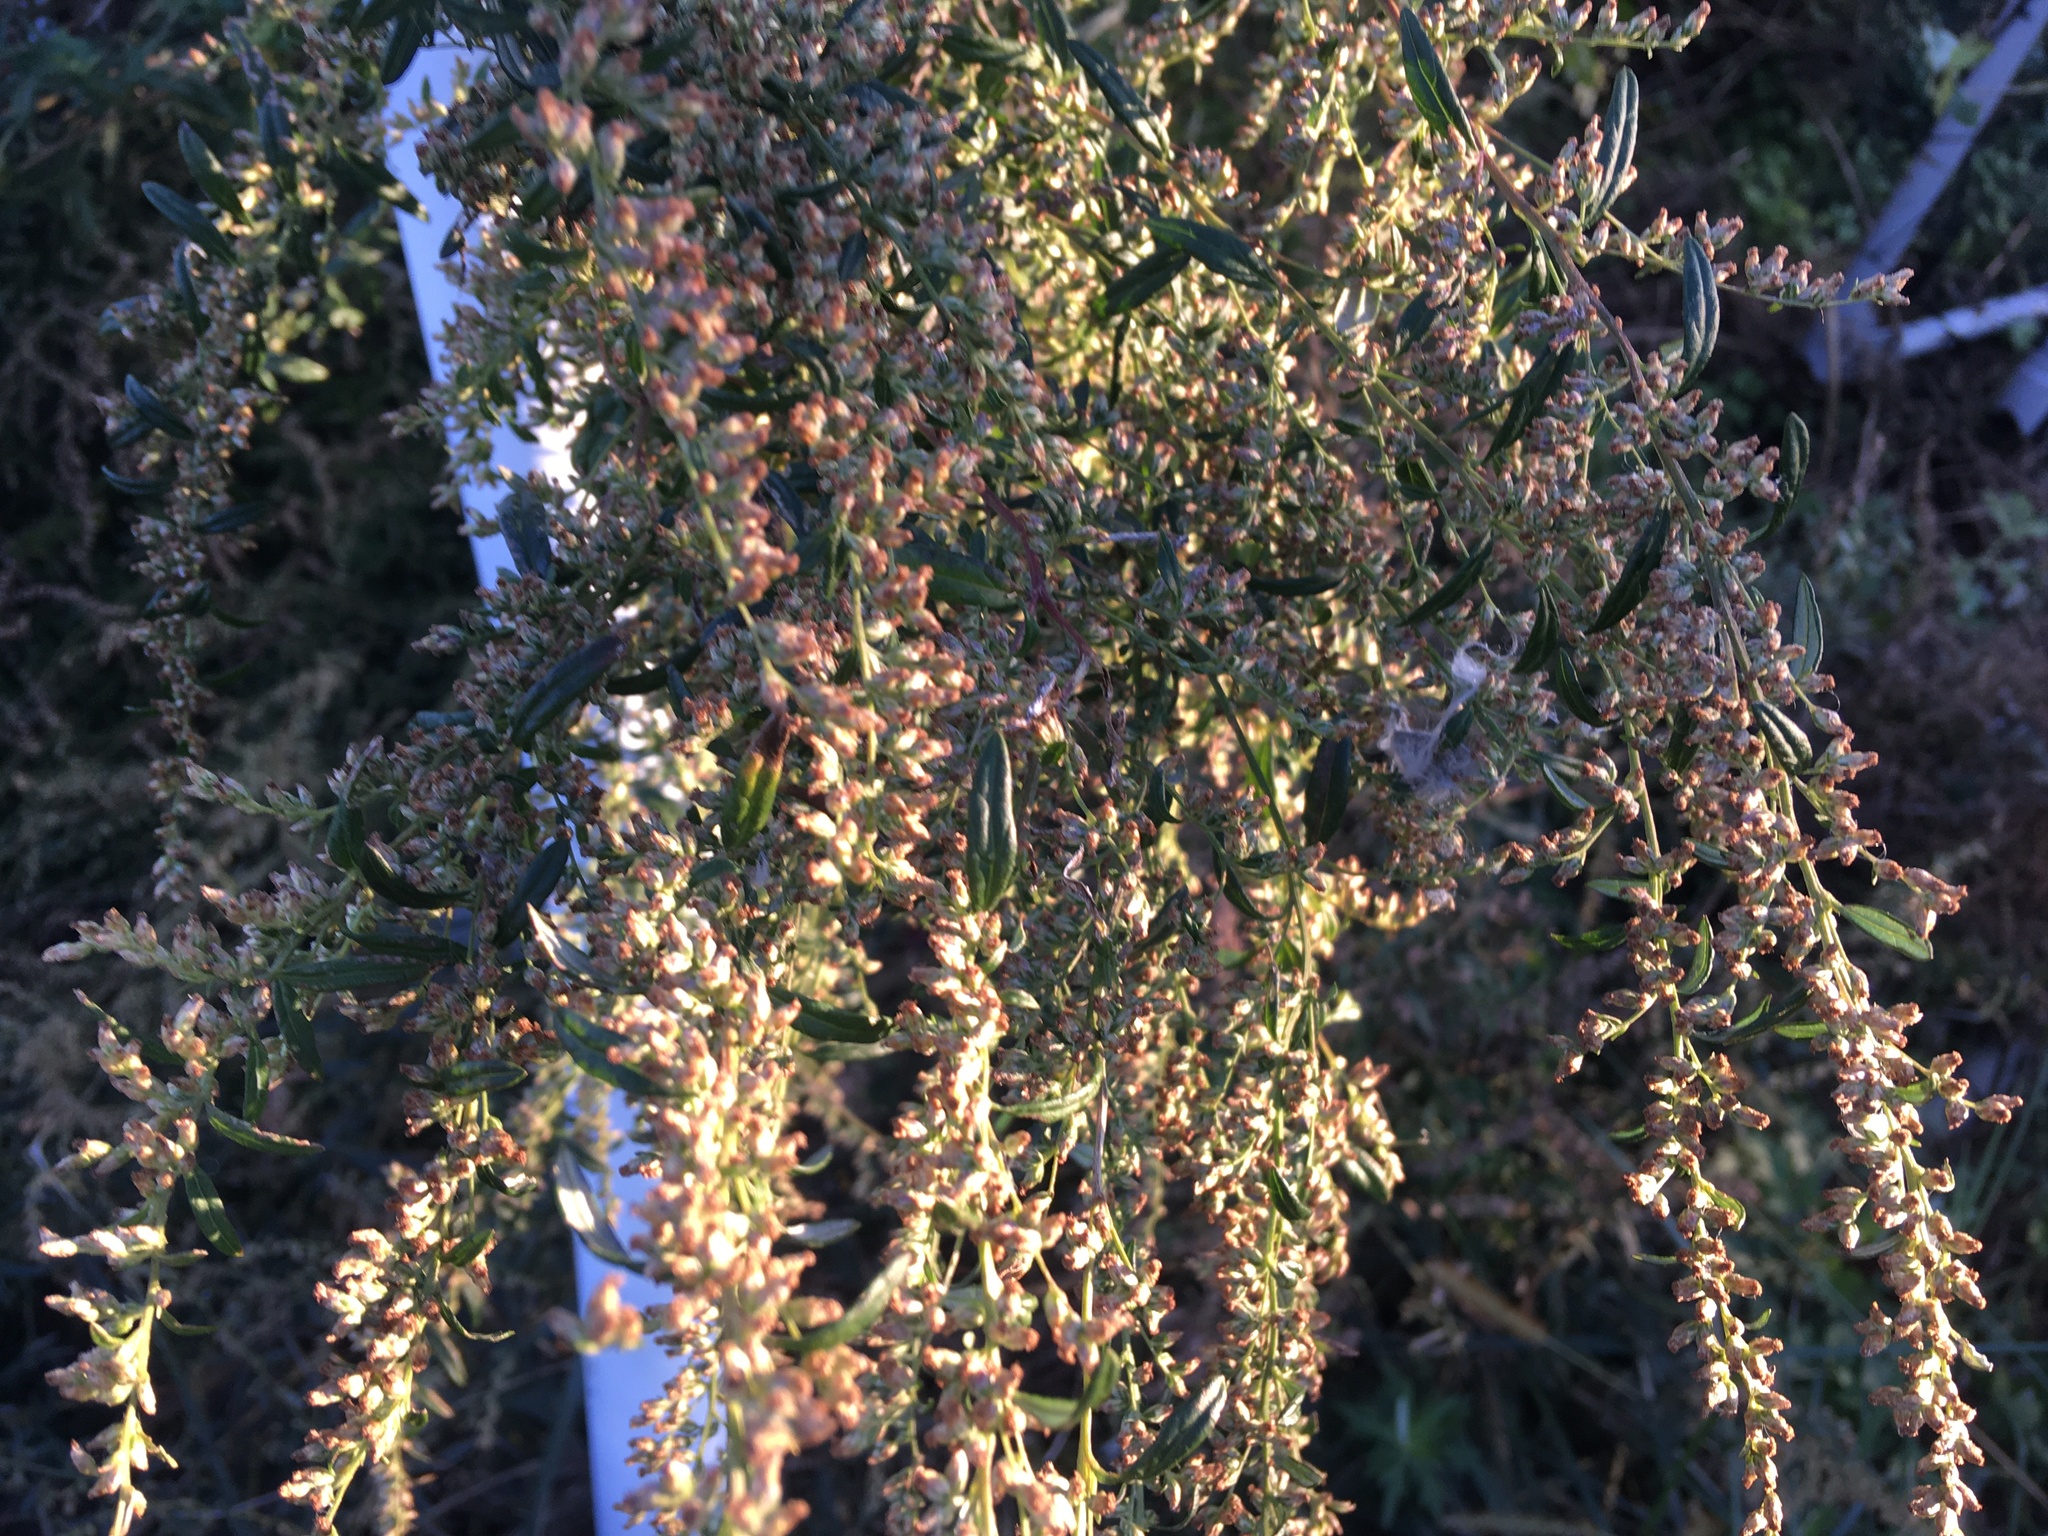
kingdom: Plantae
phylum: Tracheophyta
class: Magnoliopsida
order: Asterales
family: Asteraceae
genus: Artemisia
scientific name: Artemisia vulgaris
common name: Mugwort
